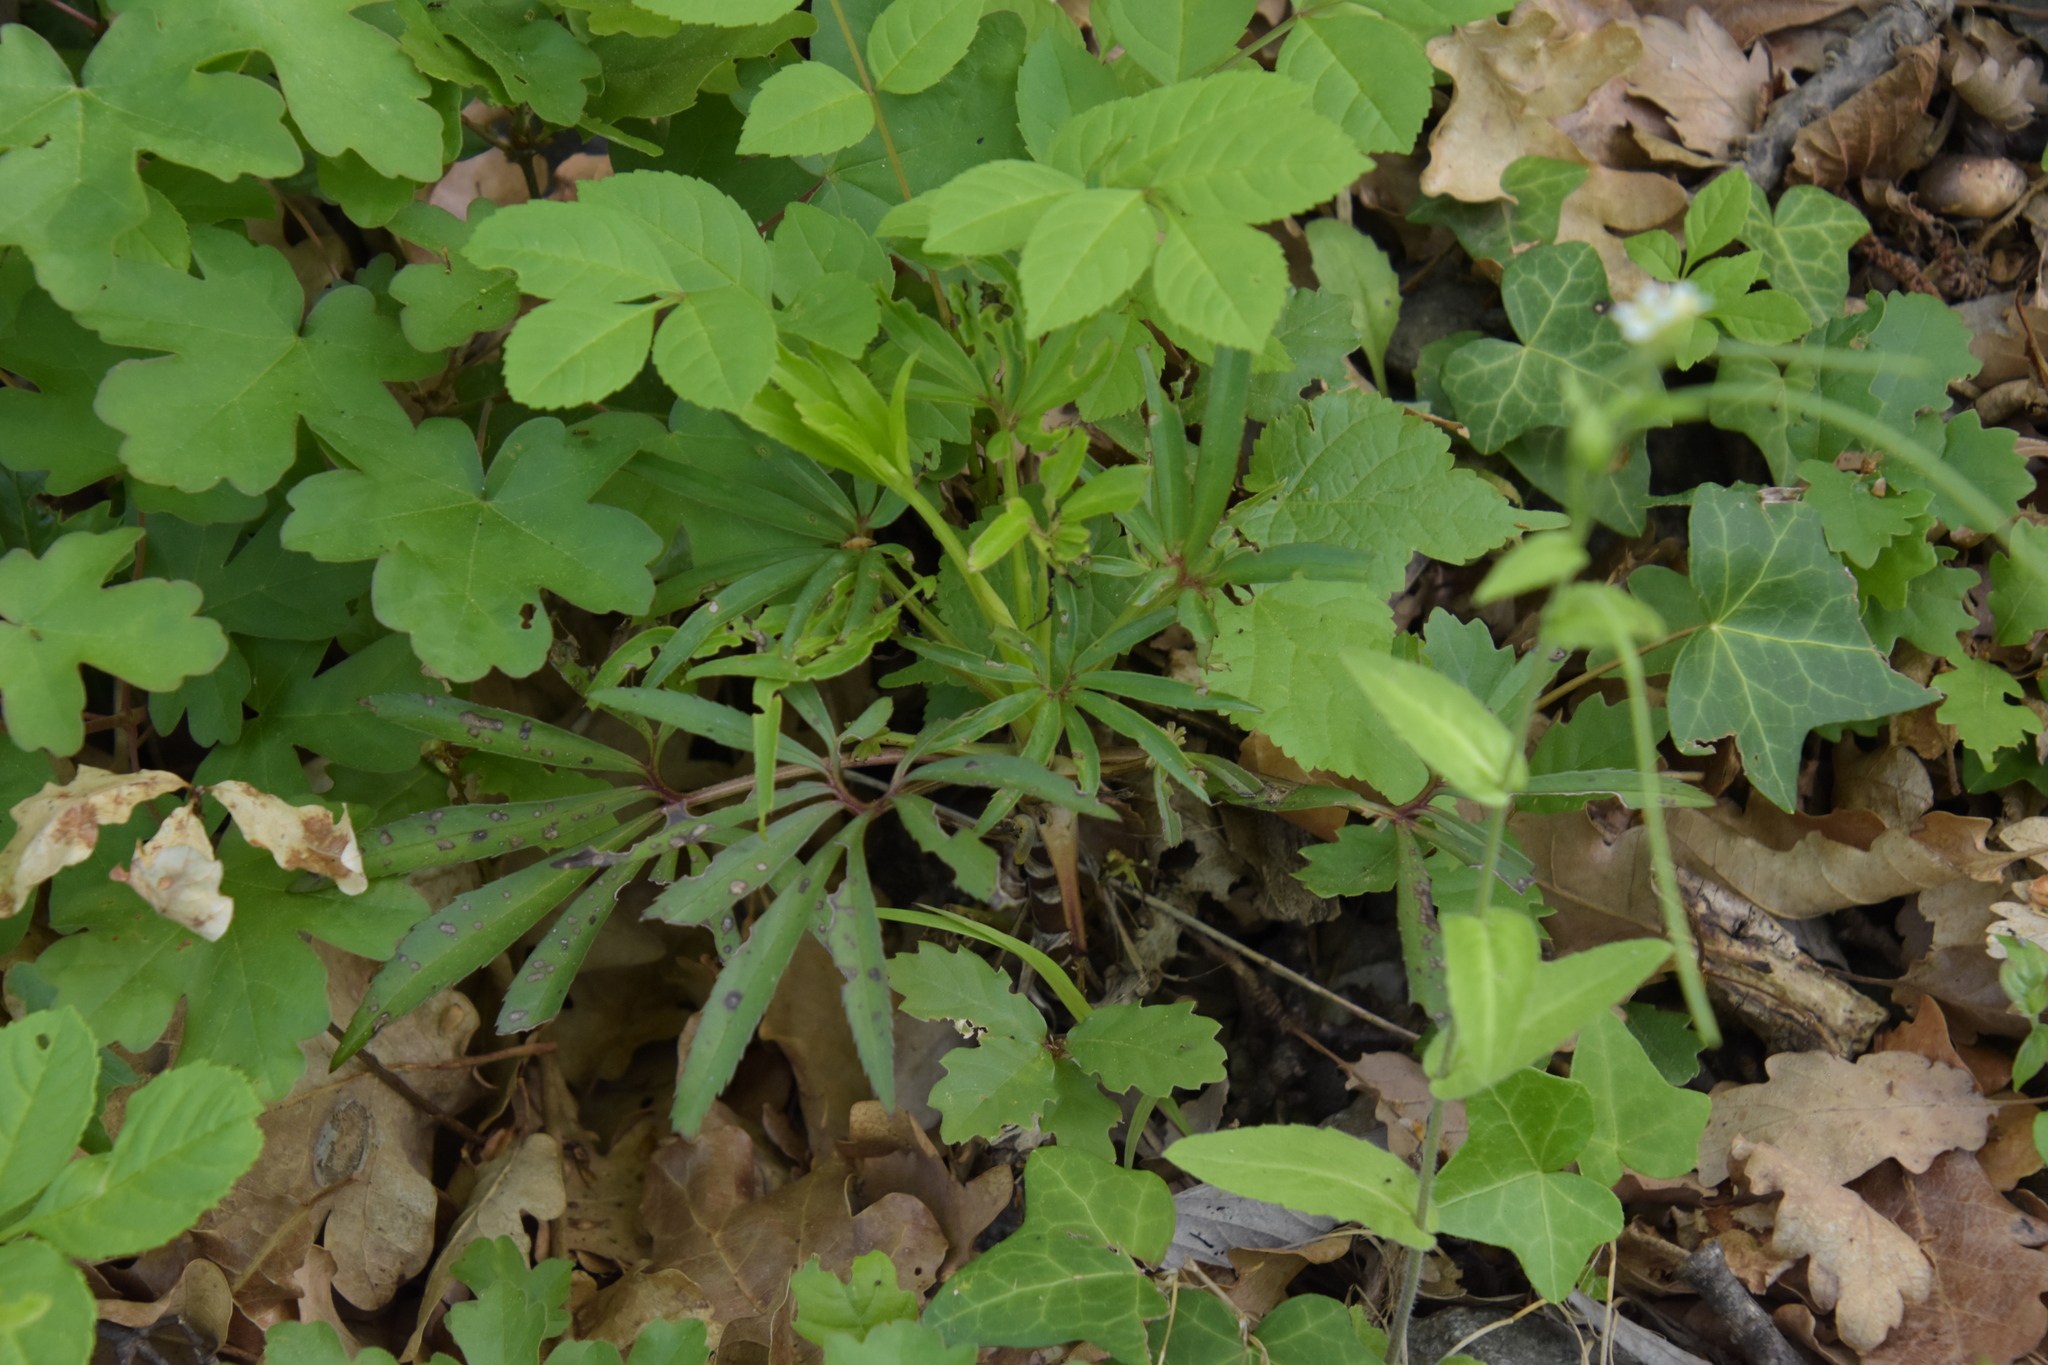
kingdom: Plantae
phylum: Tracheophyta
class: Magnoliopsida
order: Ranunculales
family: Ranunculaceae
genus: Helleborus
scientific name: Helleborus foetidus
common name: Stinking hellebore
